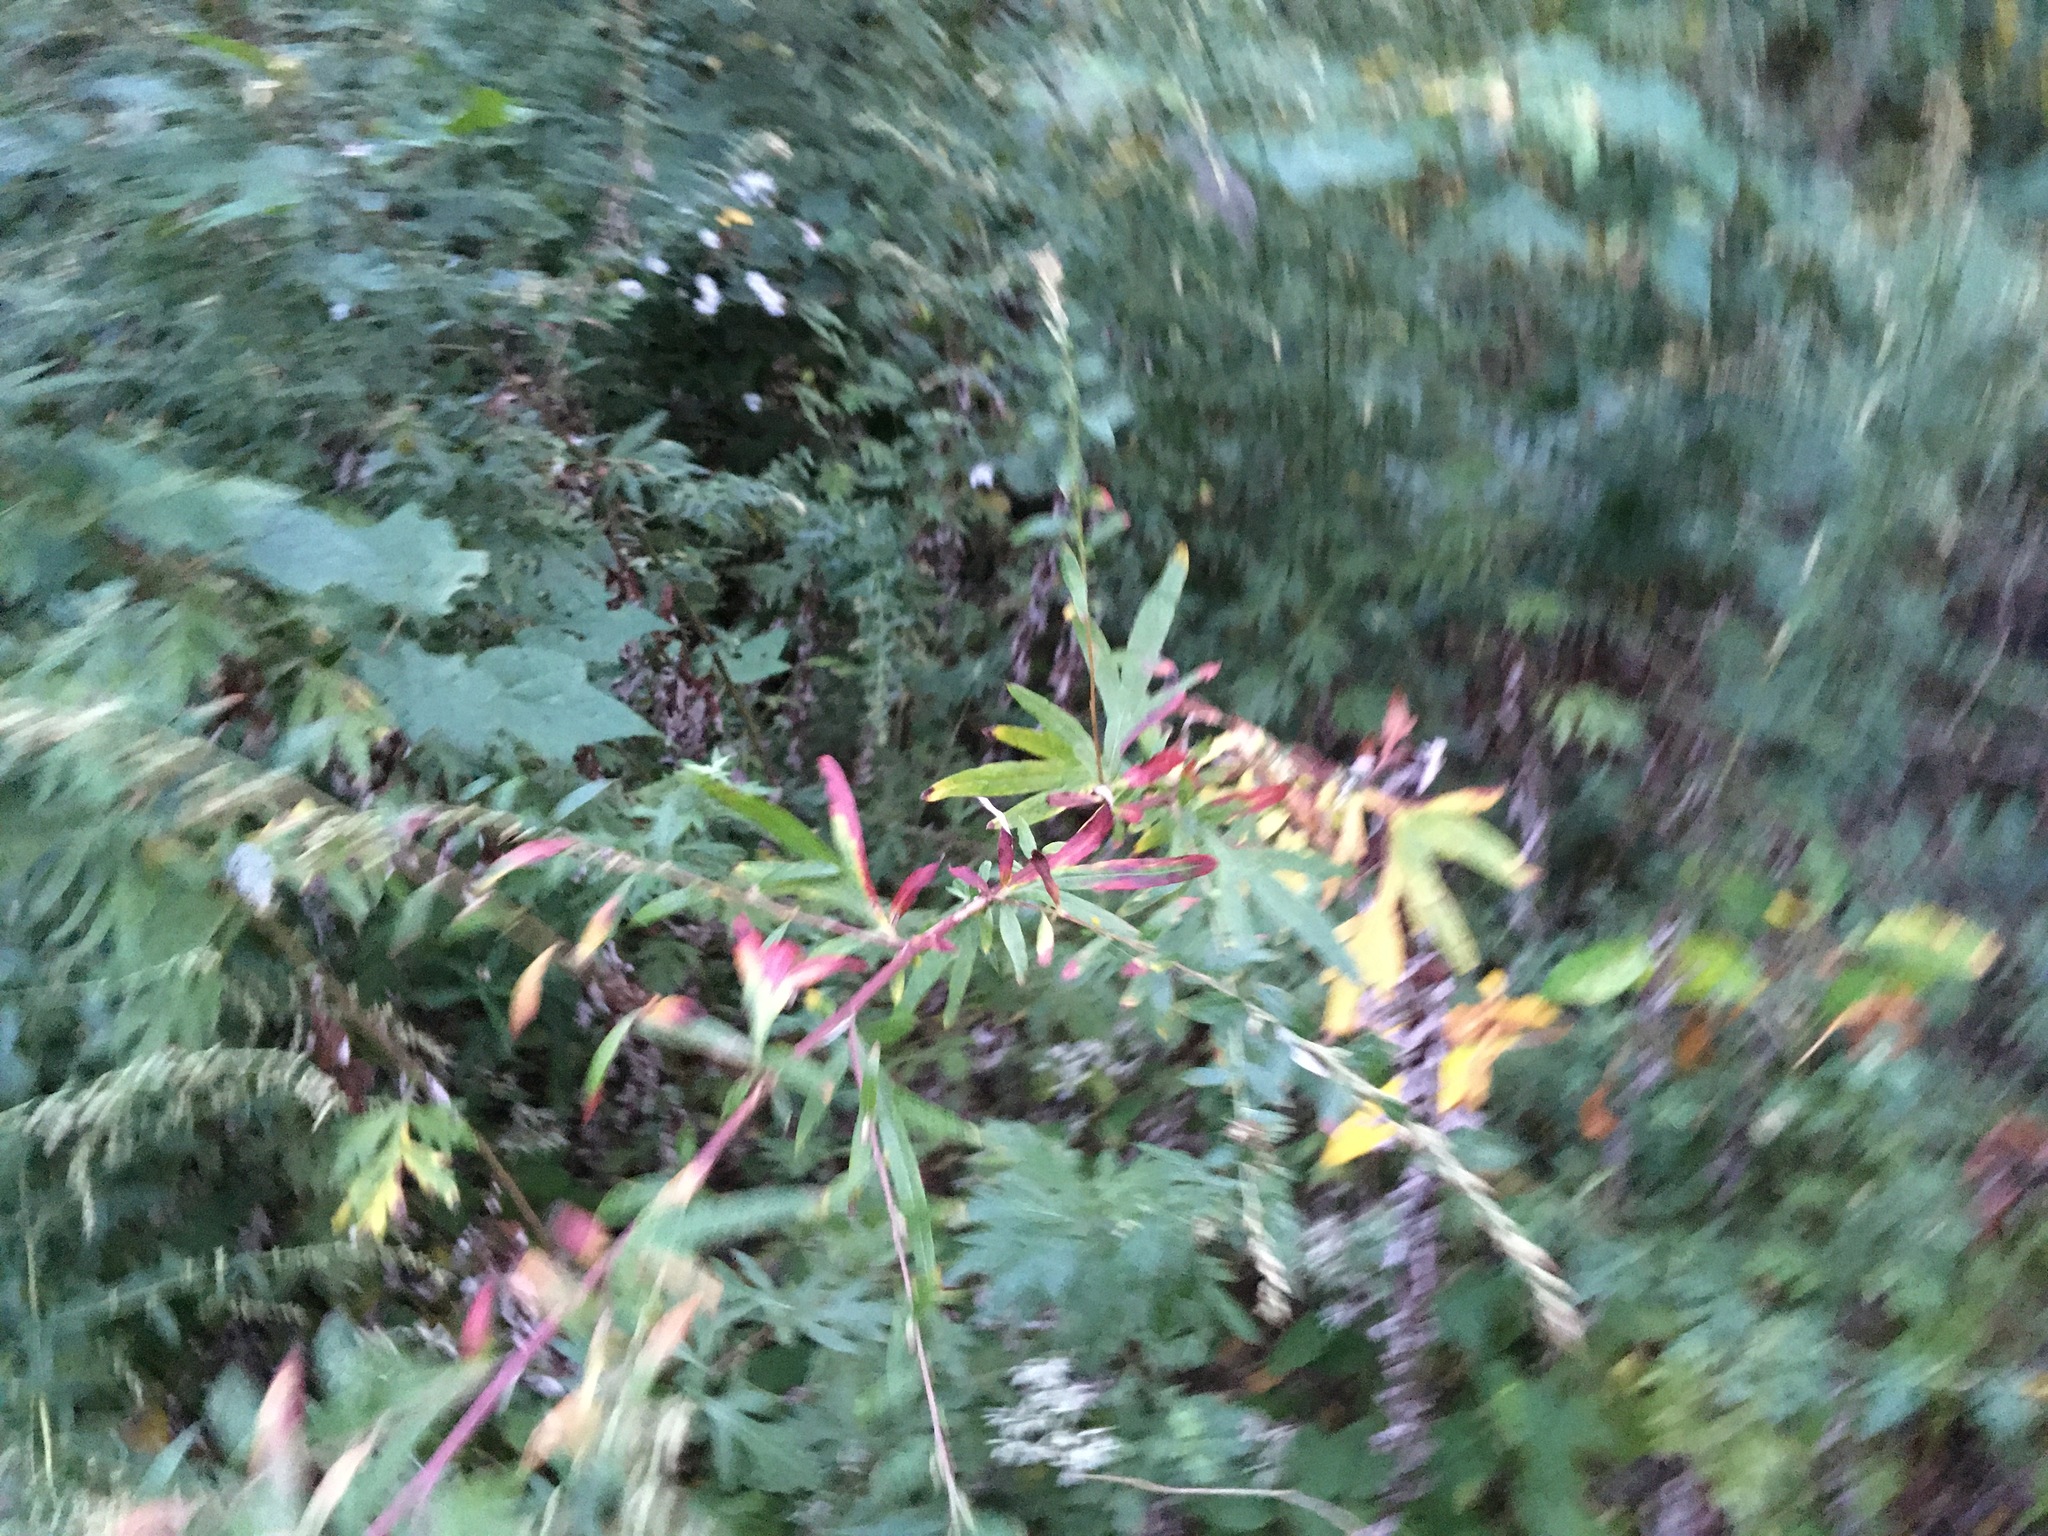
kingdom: Plantae
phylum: Tracheophyta
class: Magnoliopsida
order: Asterales
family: Asteraceae
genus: Artemisia
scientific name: Artemisia vulgaris
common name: Mugwort
